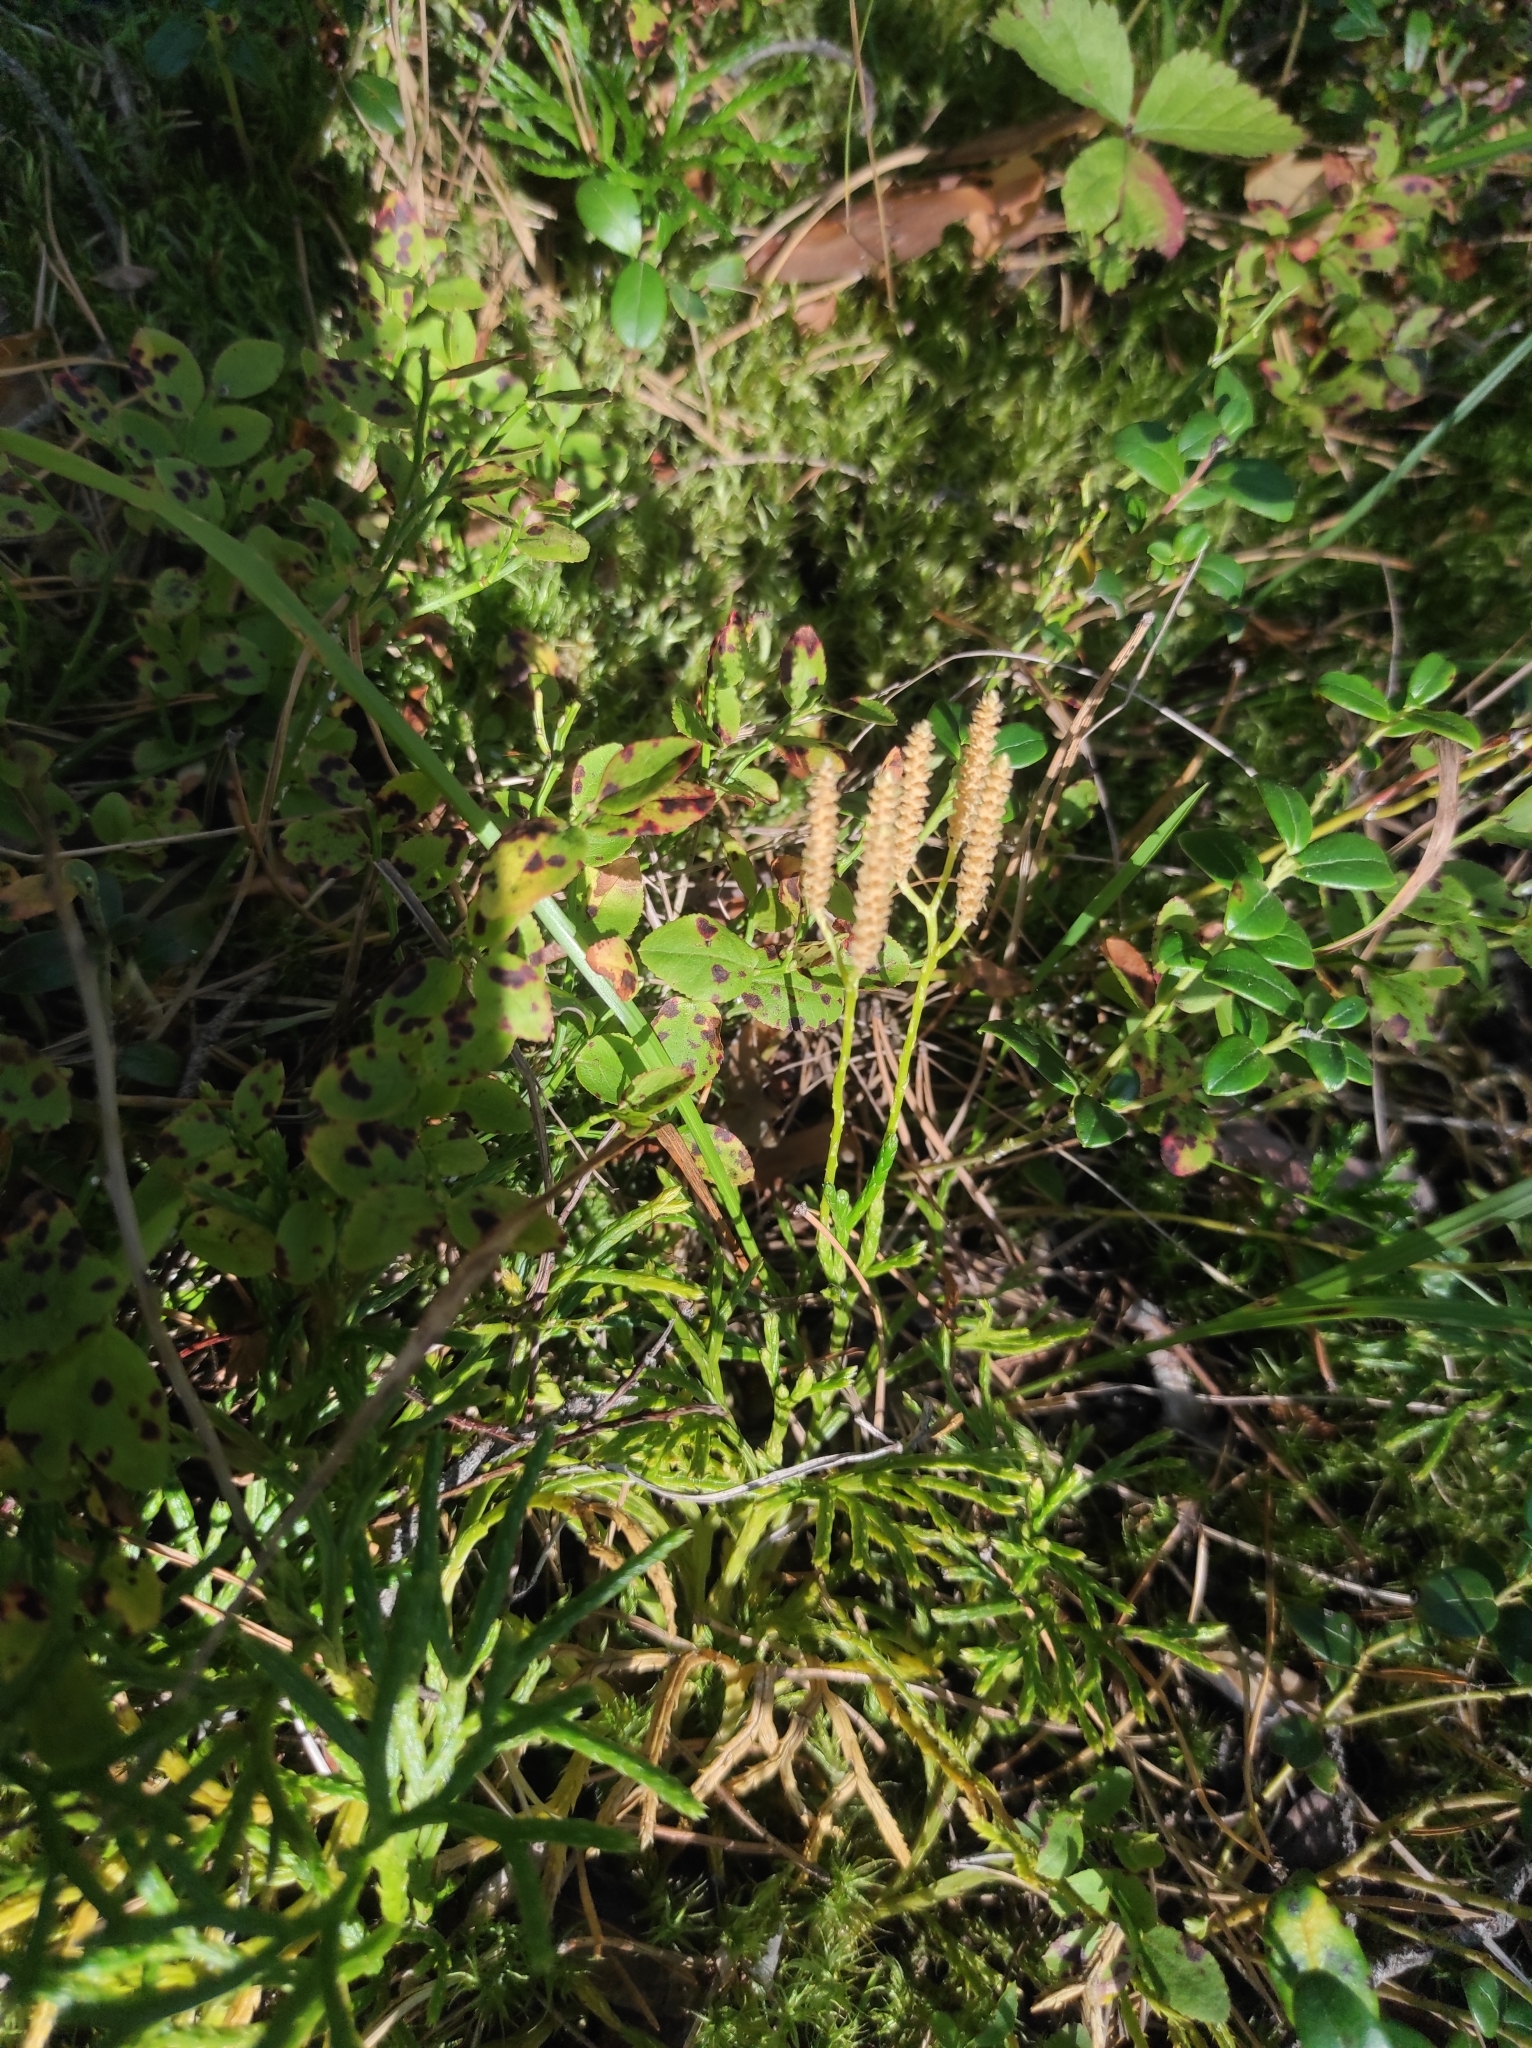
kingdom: Plantae
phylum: Tracheophyta
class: Lycopodiopsida
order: Lycopodiales
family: Lycopodiaceae
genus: Diphasiastrum
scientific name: Diphasiastrum complanatum
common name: Northern running-pine
